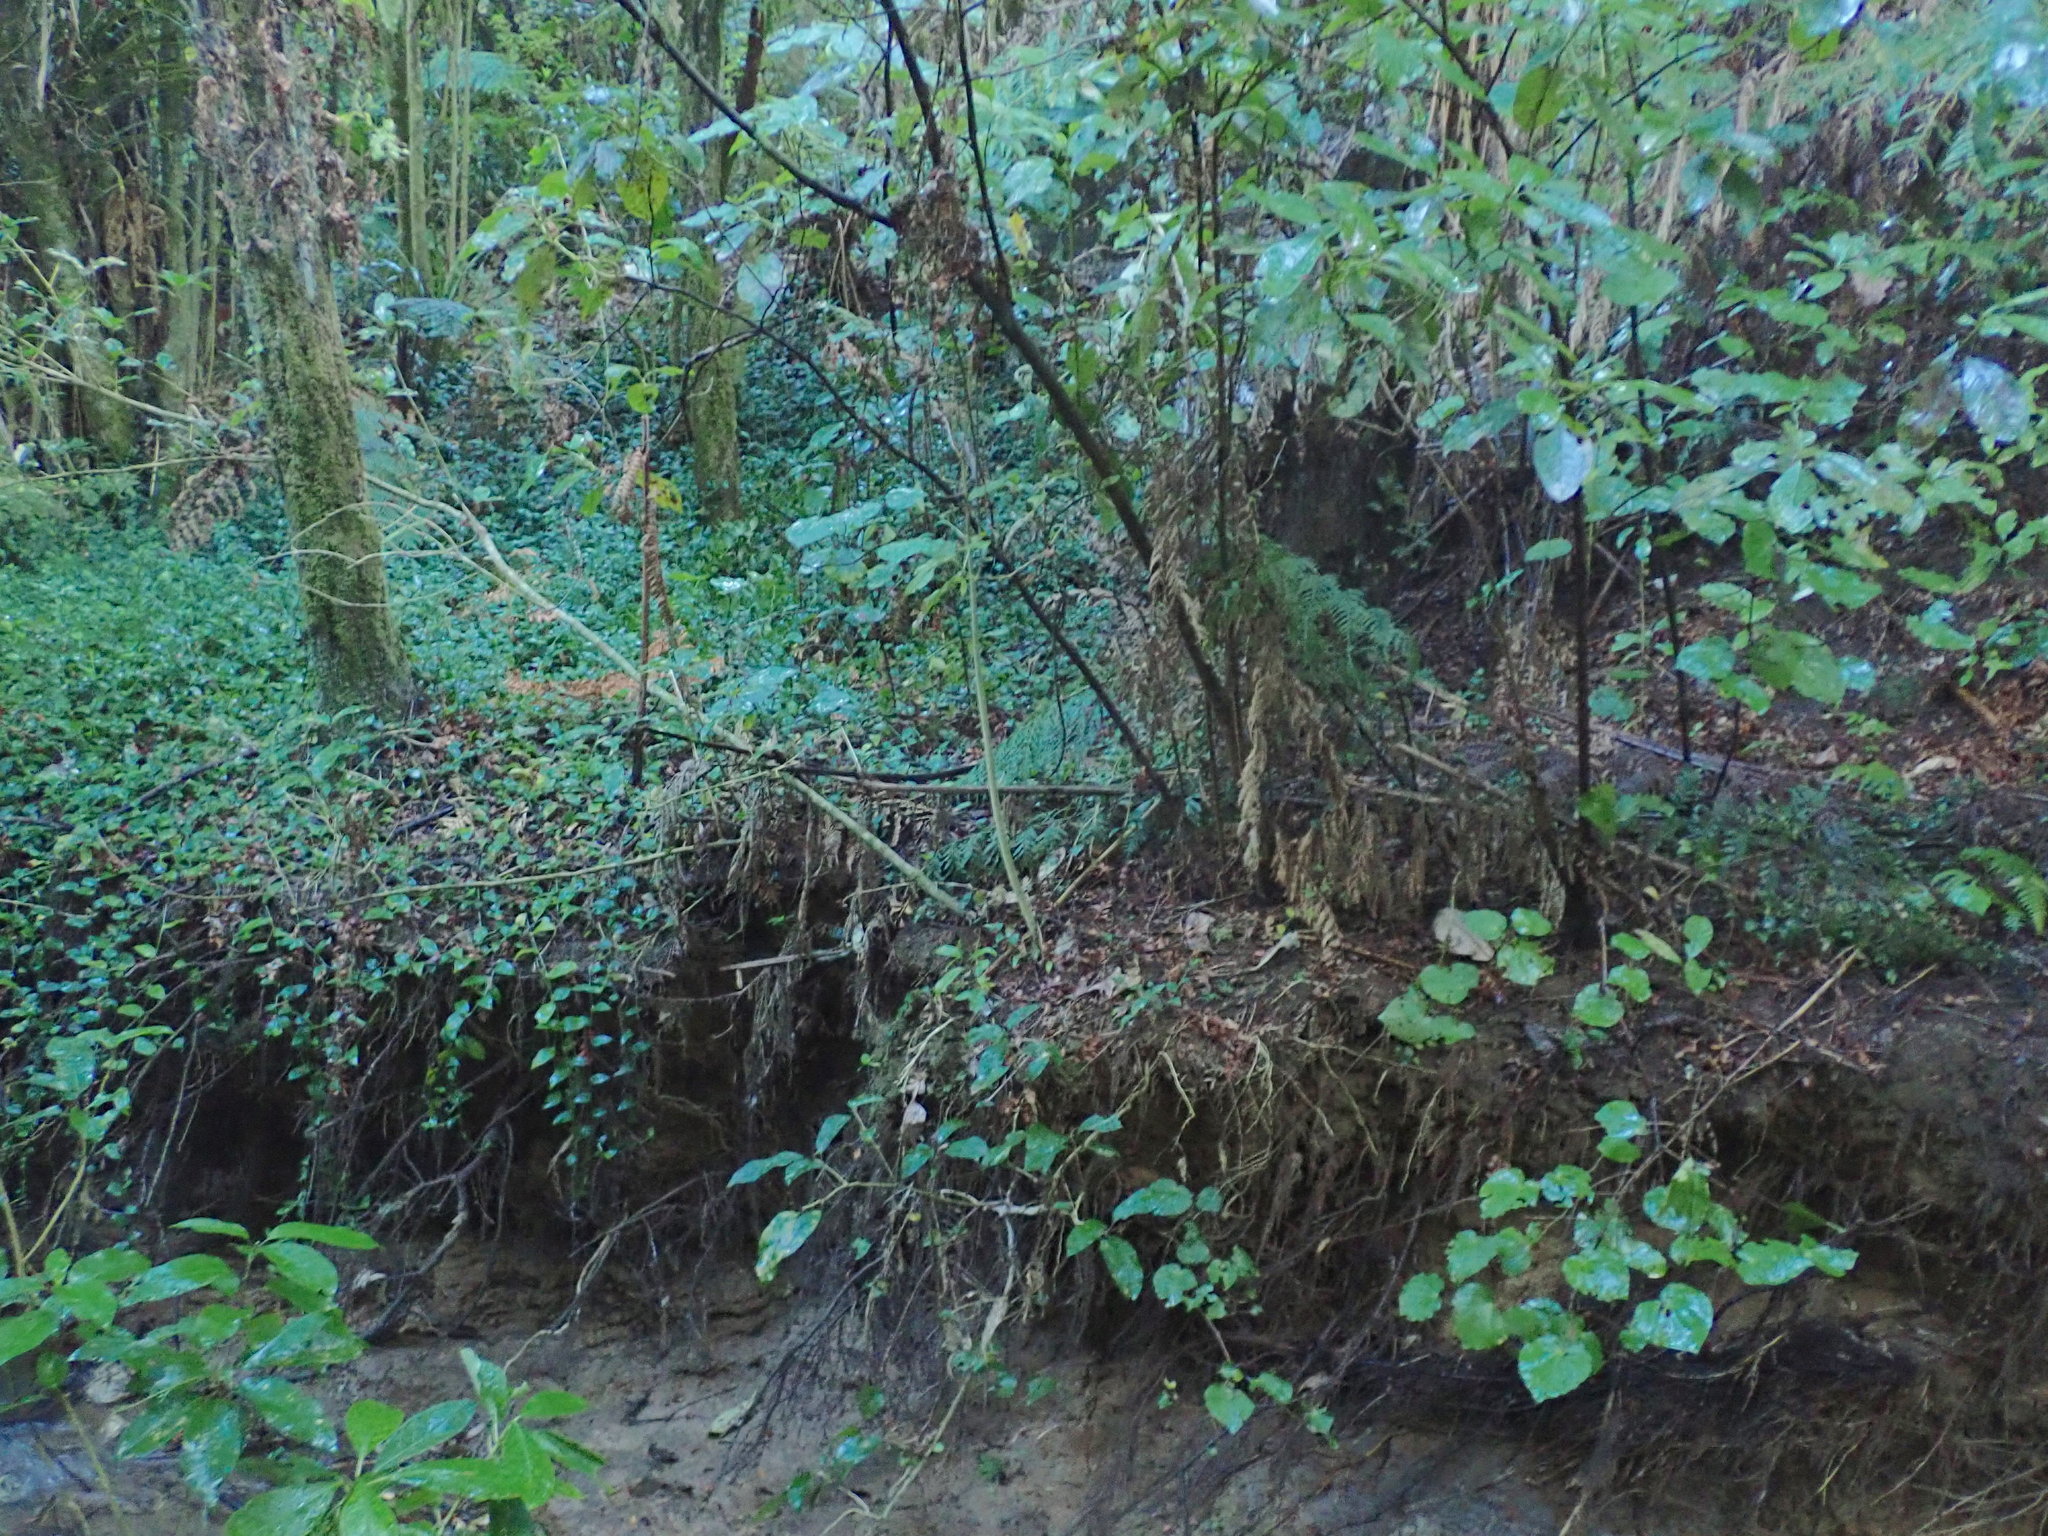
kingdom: Plantae
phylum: Tracheophyta
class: Magnoliopsida
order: Piperales
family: Piperaceae
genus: Macropiper
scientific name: Macropiper excelsum
